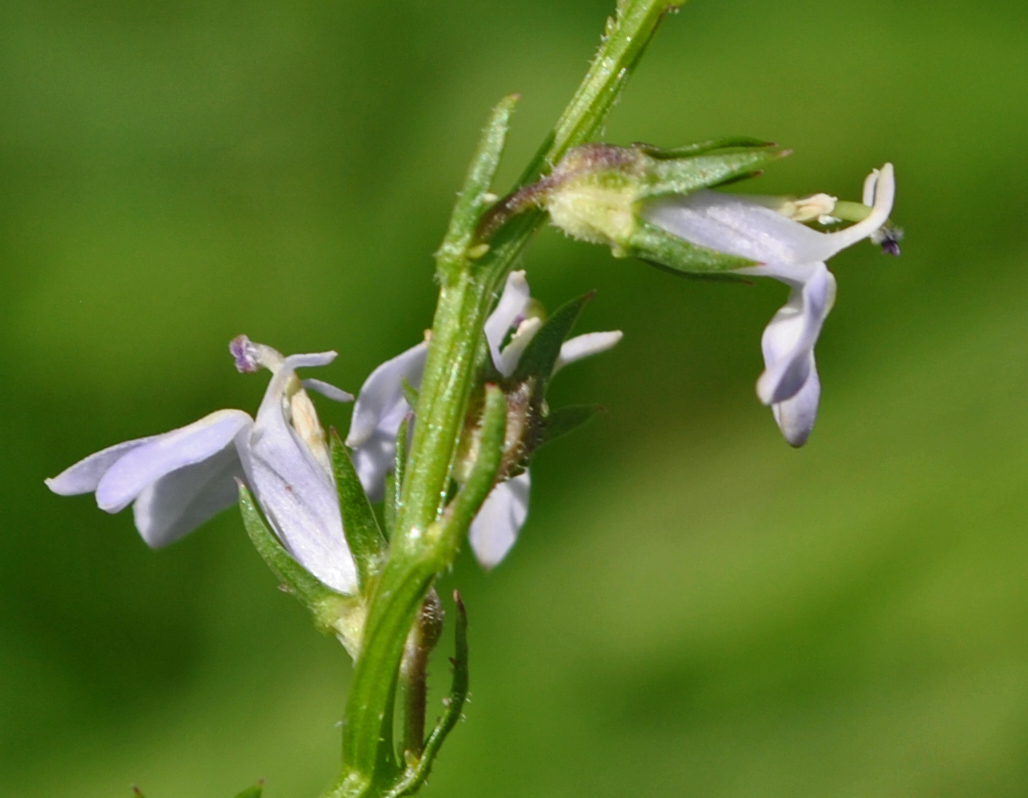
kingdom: Plantae
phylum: Tracheophyta
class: Magnoliopsida
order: Asterales
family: Campanulaceae
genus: Lobelia
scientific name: Lobelia spicata
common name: Pale-spike lobelia
